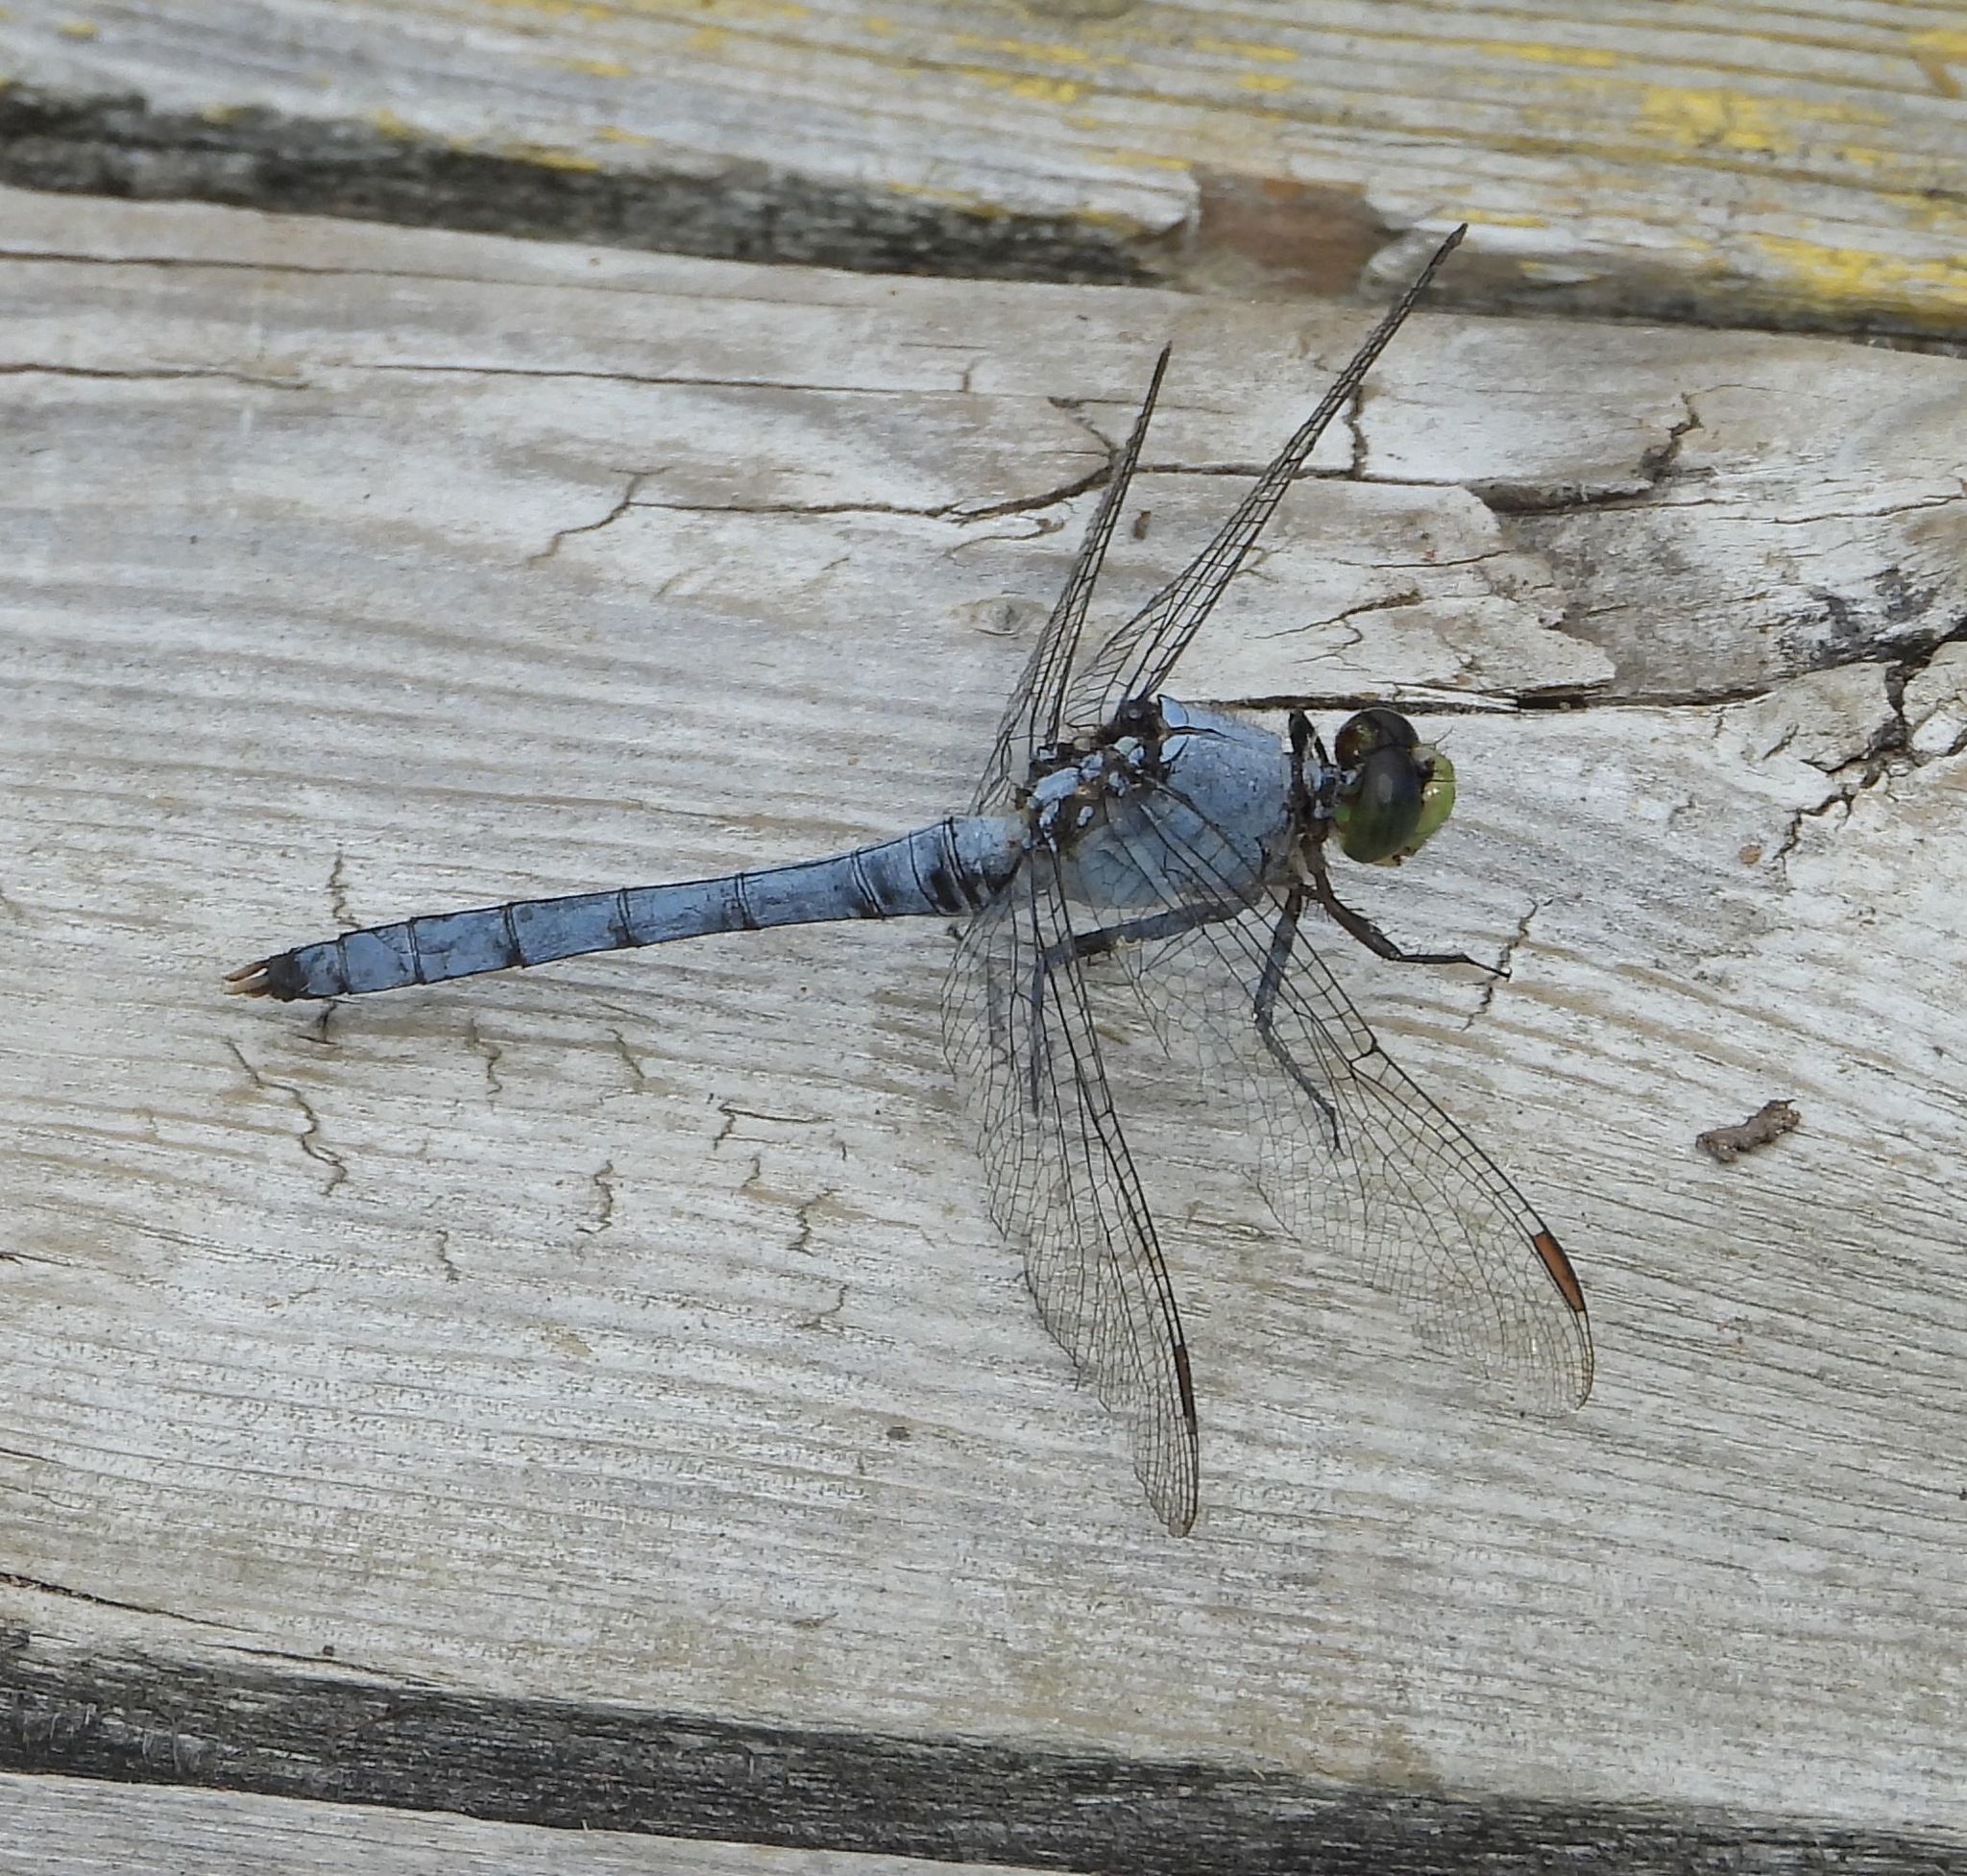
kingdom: Animalia
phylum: Arthropoda
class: Insecta
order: Odonata
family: Libellulidae
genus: Erythemis
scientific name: Erythemis simplicicollis
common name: Eastern pondhawk
